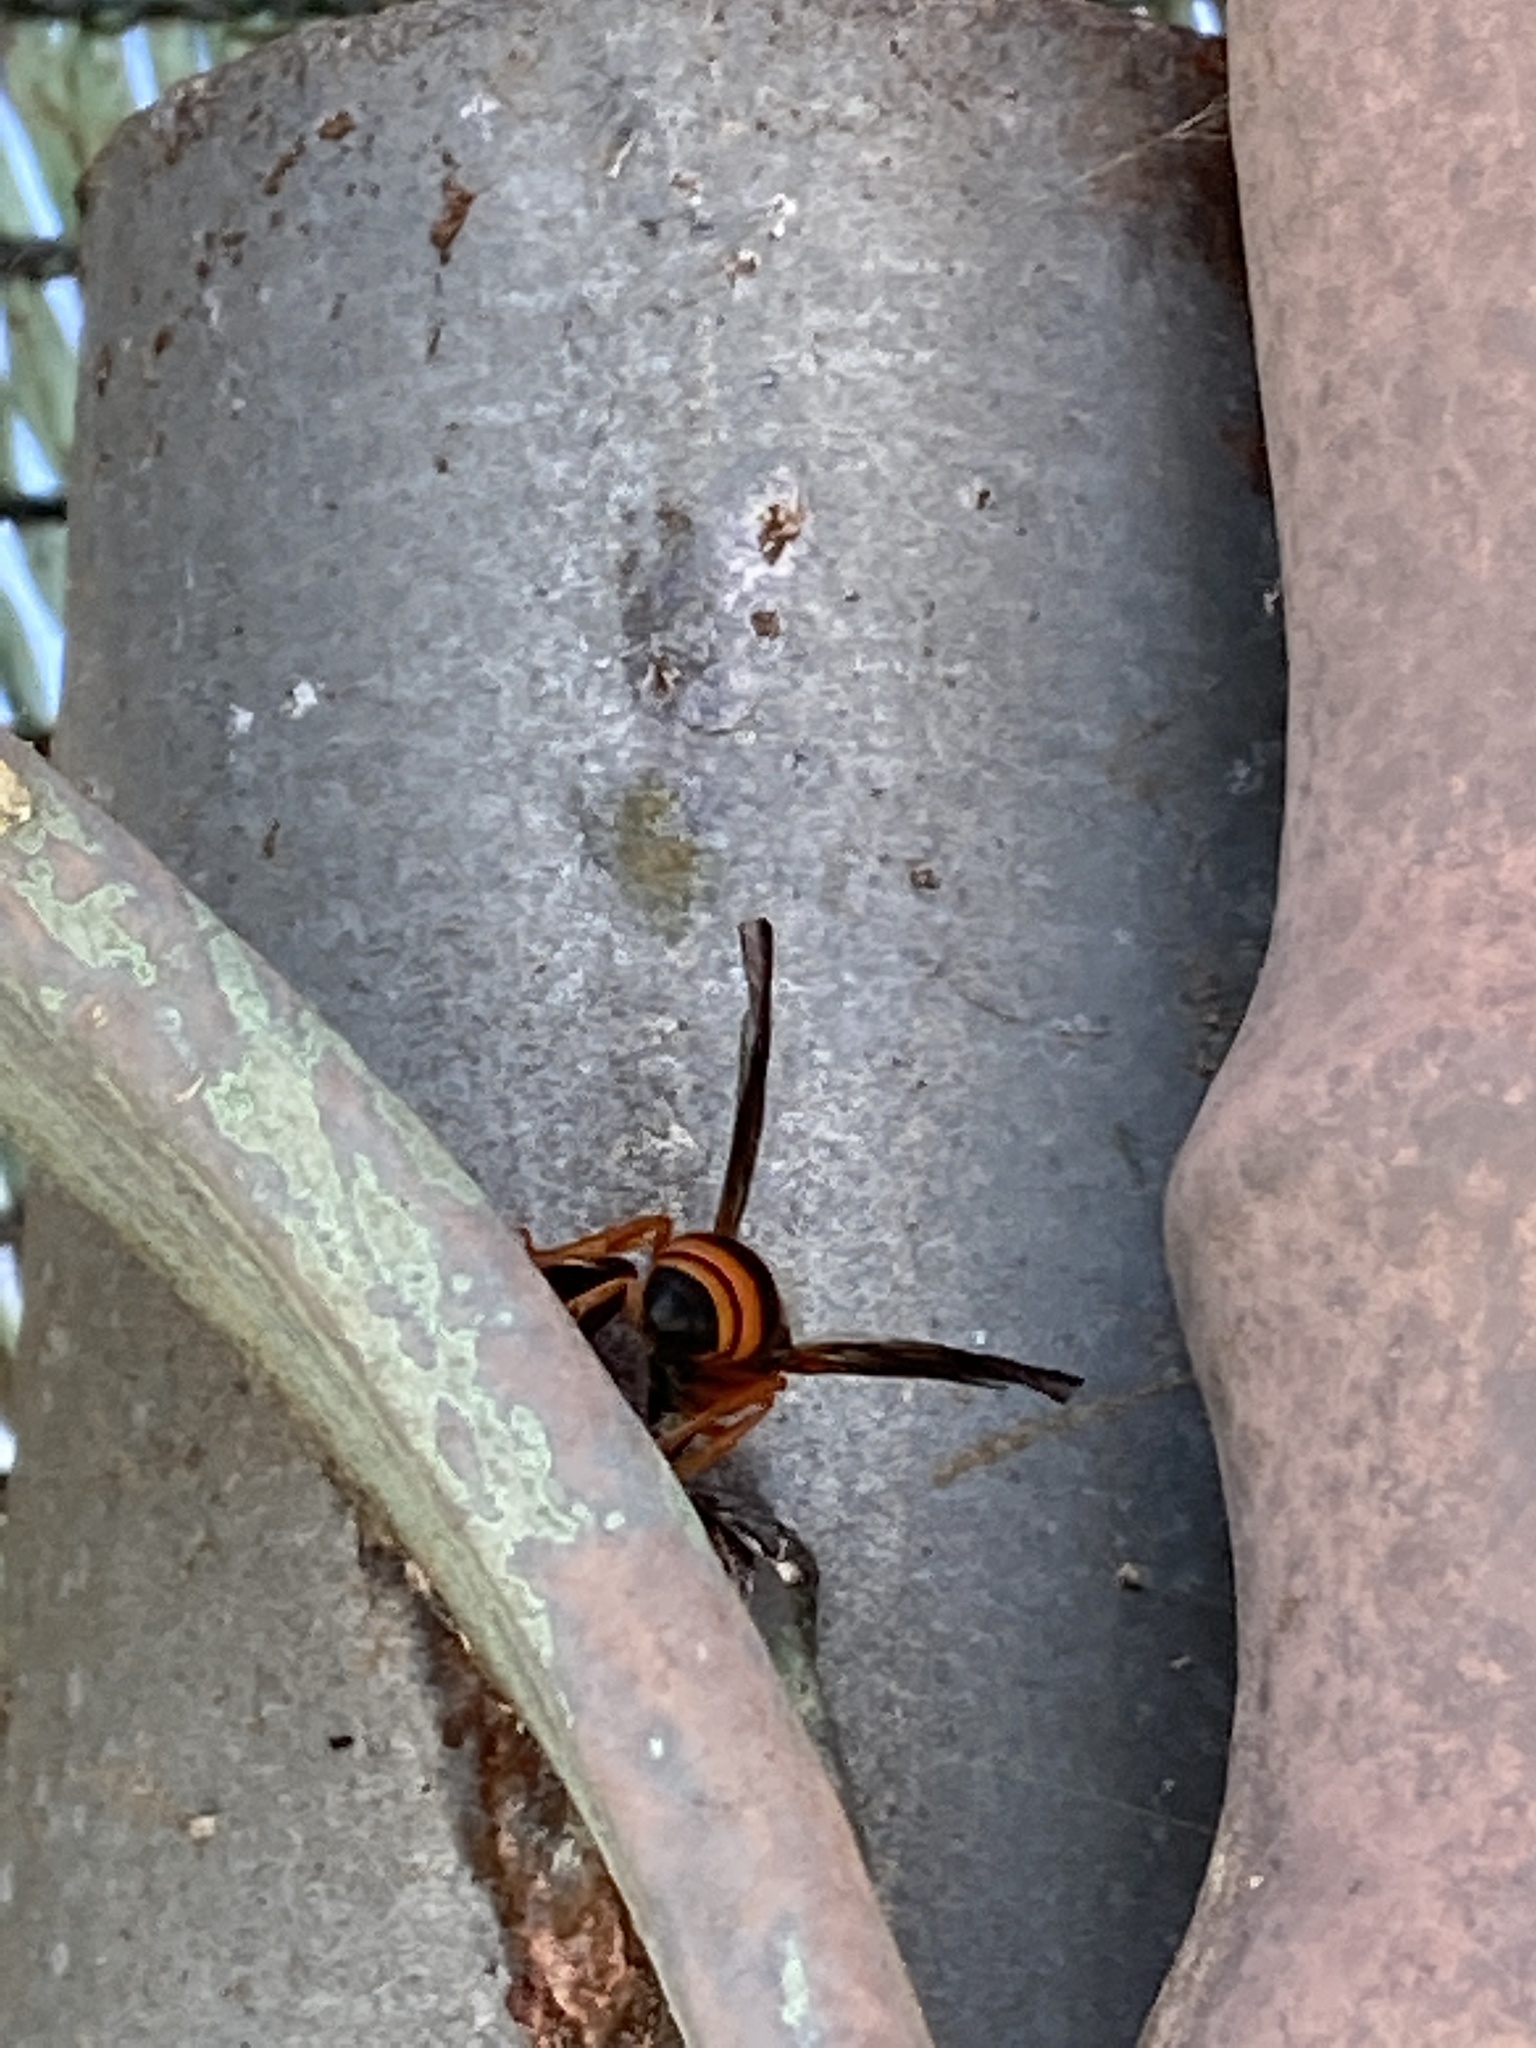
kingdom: Animalia
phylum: Arthropoda
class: Insecta
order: Hymenoptera
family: Vespidae
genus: Ancistrocerus
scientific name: Ancistrocerus kerneri
